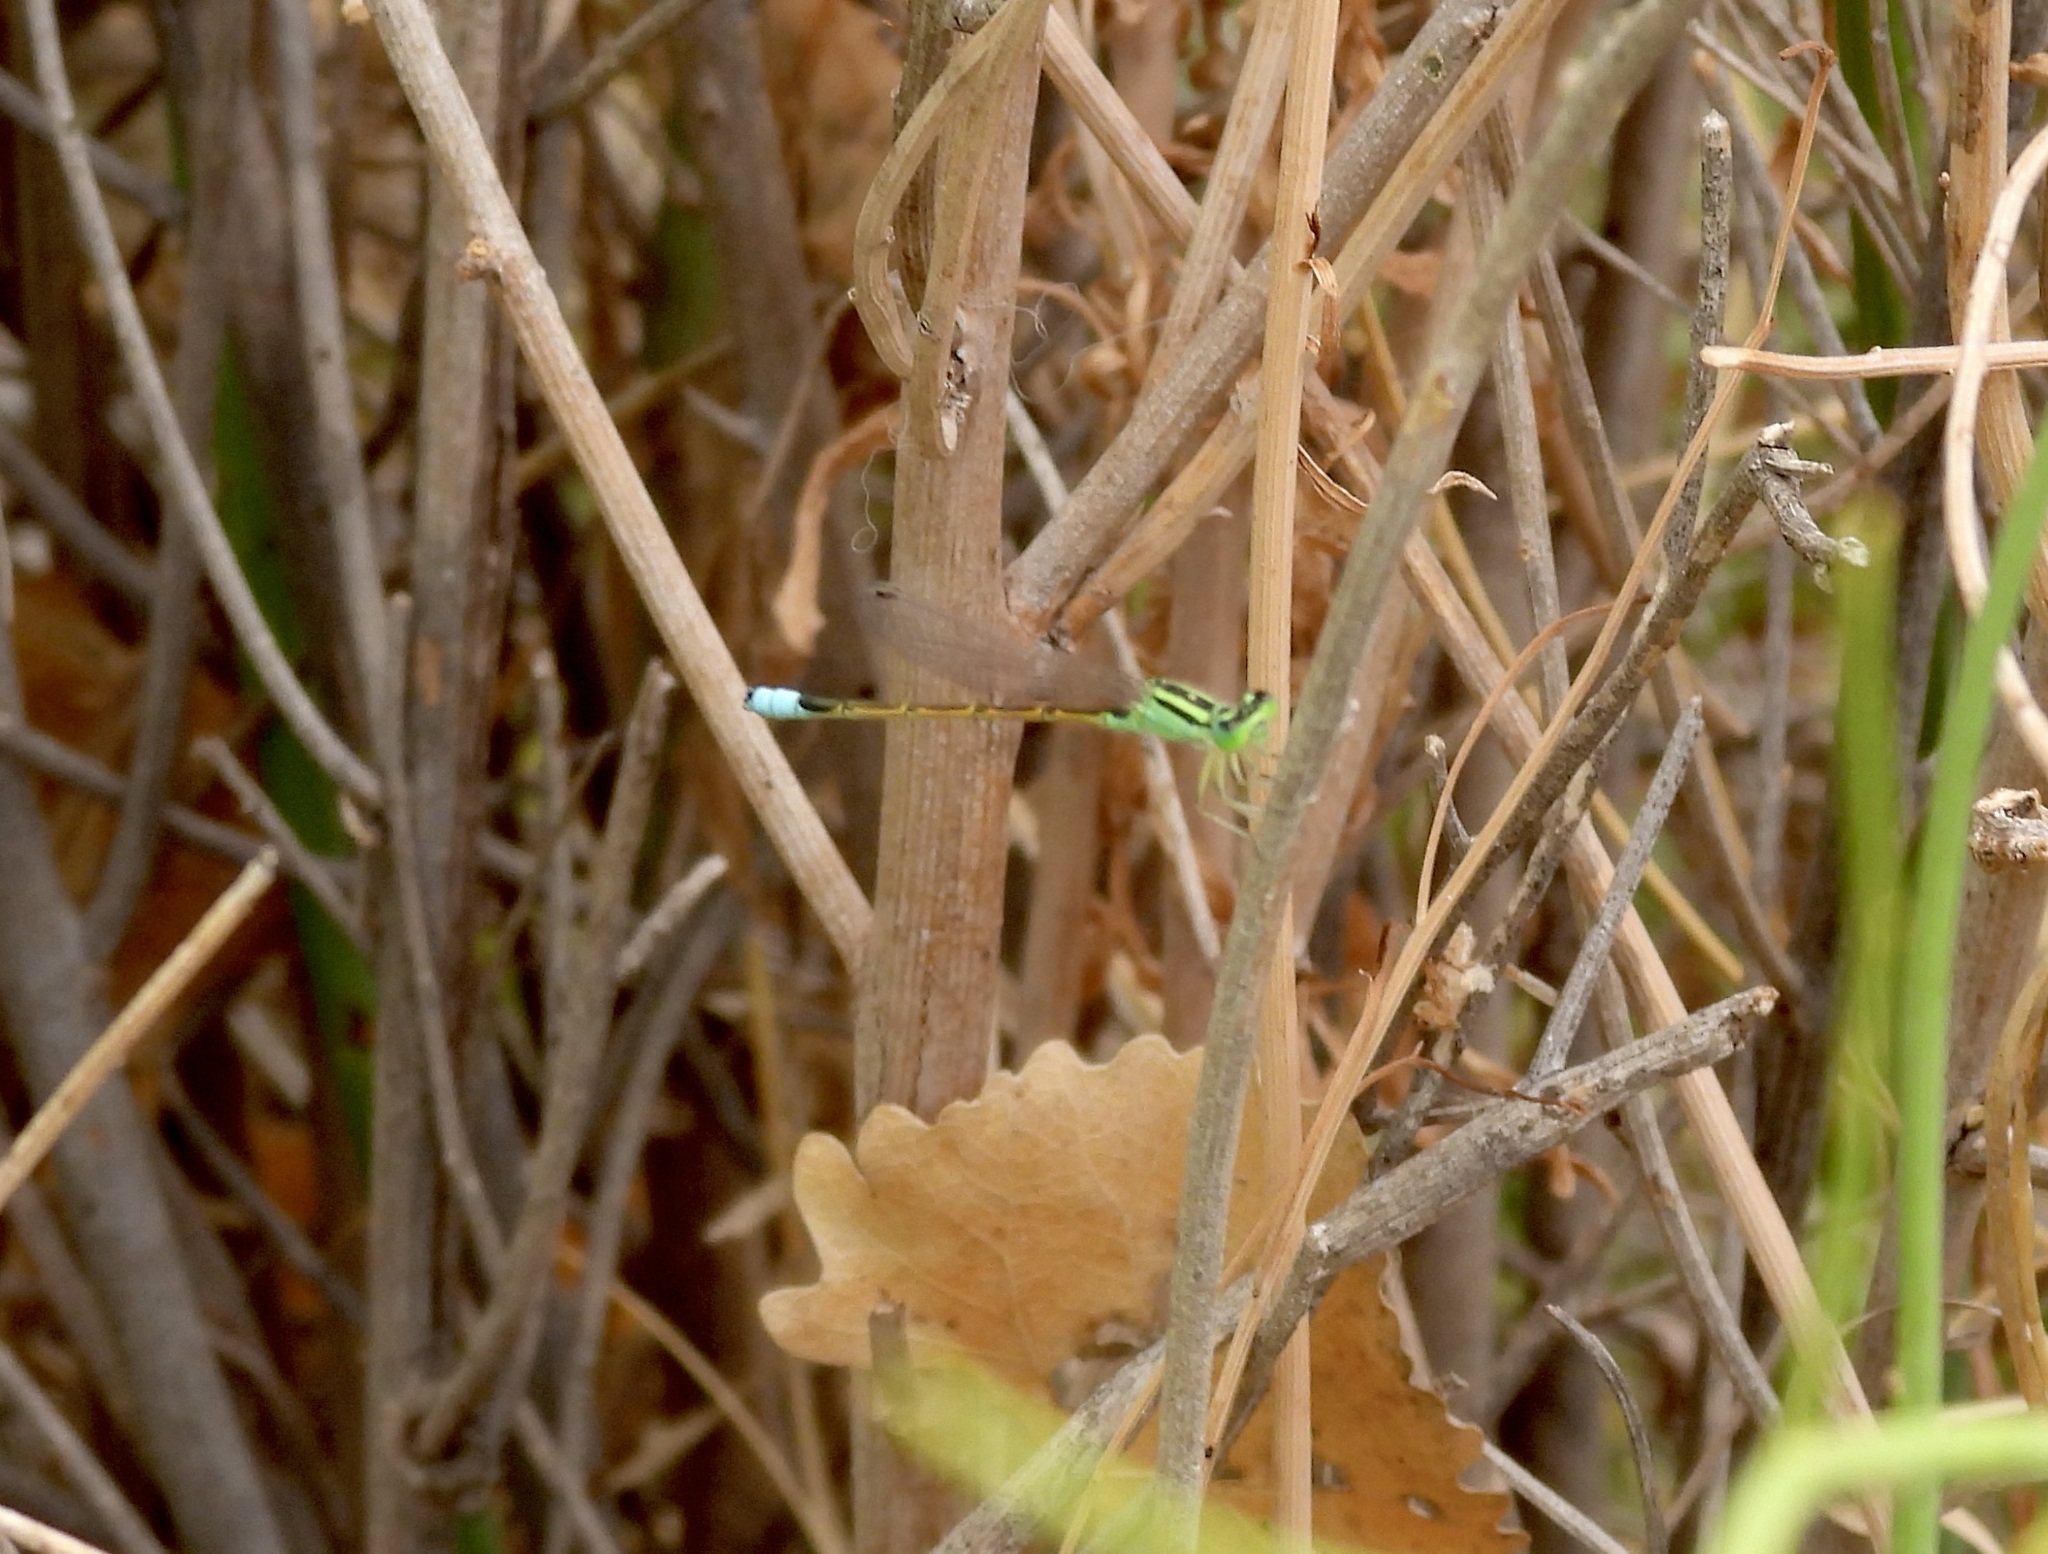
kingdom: Animalia
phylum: Arthropoda
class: Insecta
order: Odonata
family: Coenagrionidae
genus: Ischnura
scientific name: Ischnura barberi
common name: Desert forktail
